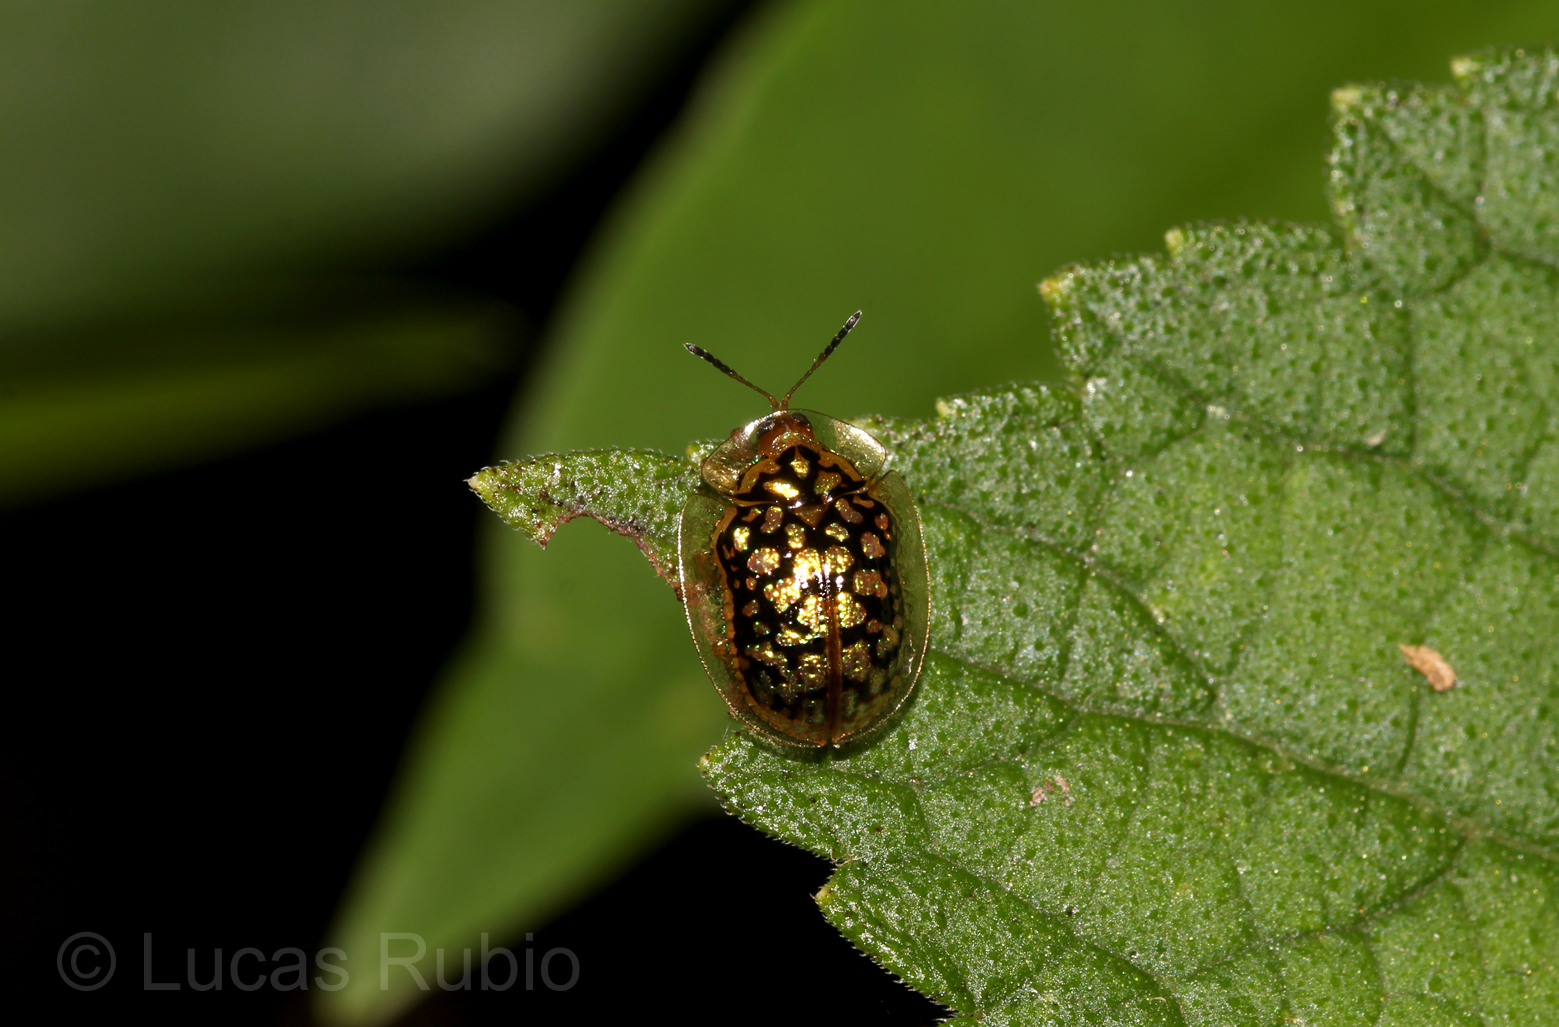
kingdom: Animalia
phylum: Arthropoda
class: Insecta
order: Coleoptera
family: Chrysomelidae
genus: Cteisella
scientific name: Cteisella confusa
